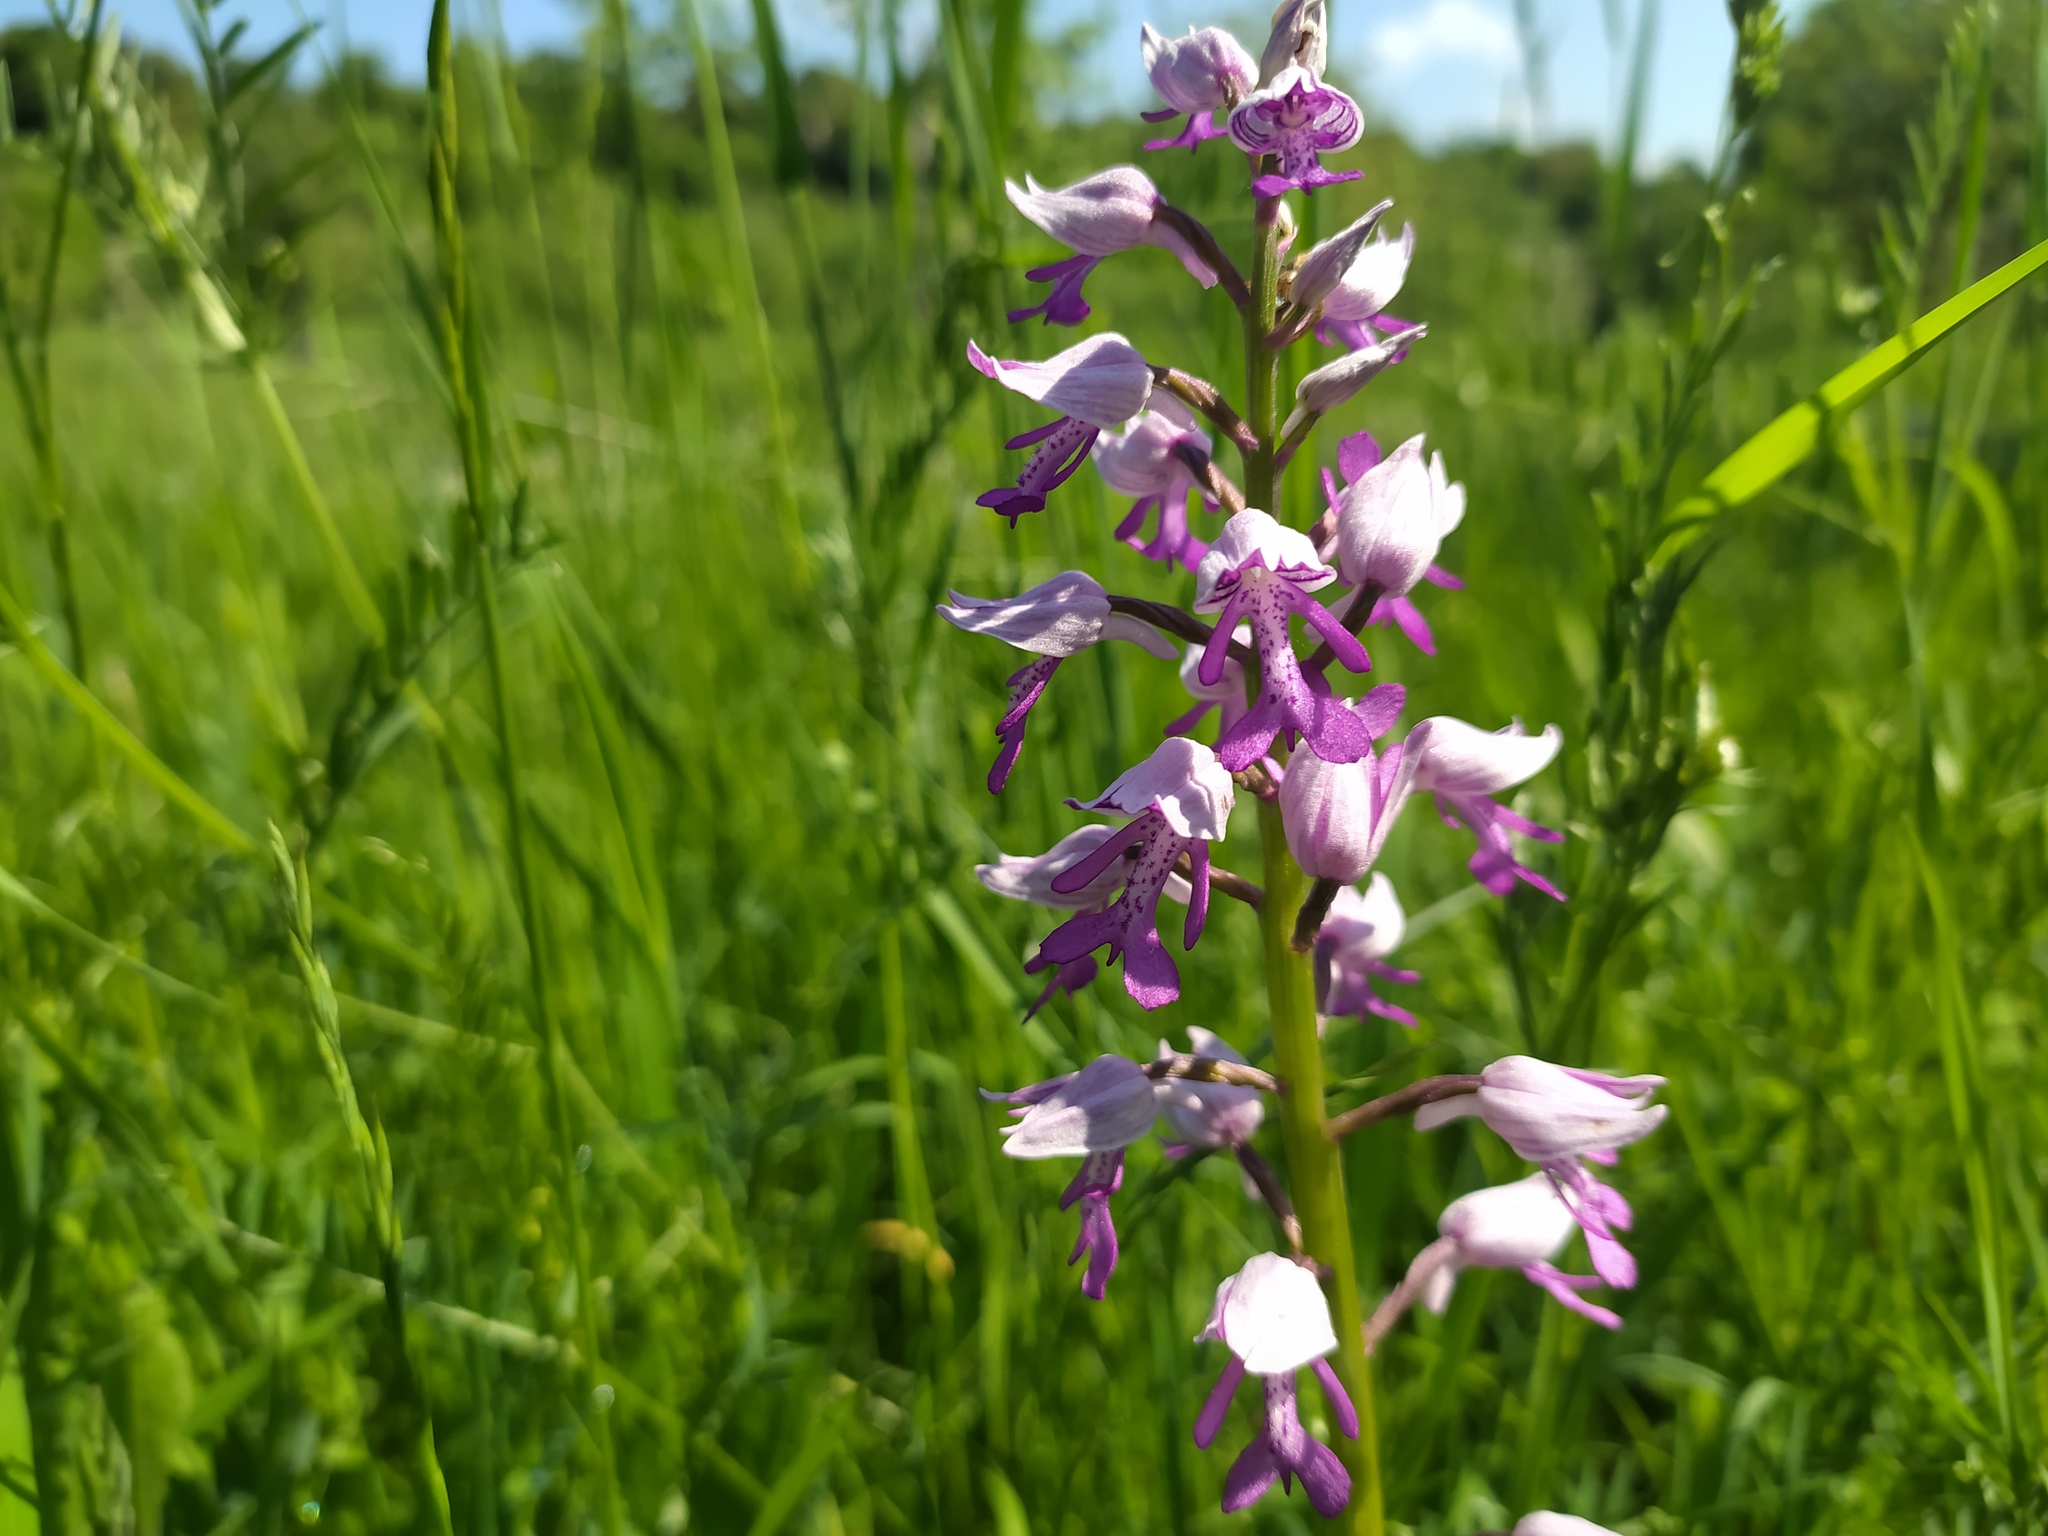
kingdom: Plantae
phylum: Tracheophyta
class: Liliopsida
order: Asparagales
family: Orchidaceae
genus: Orchis
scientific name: Orchis militaris
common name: Military orchid
